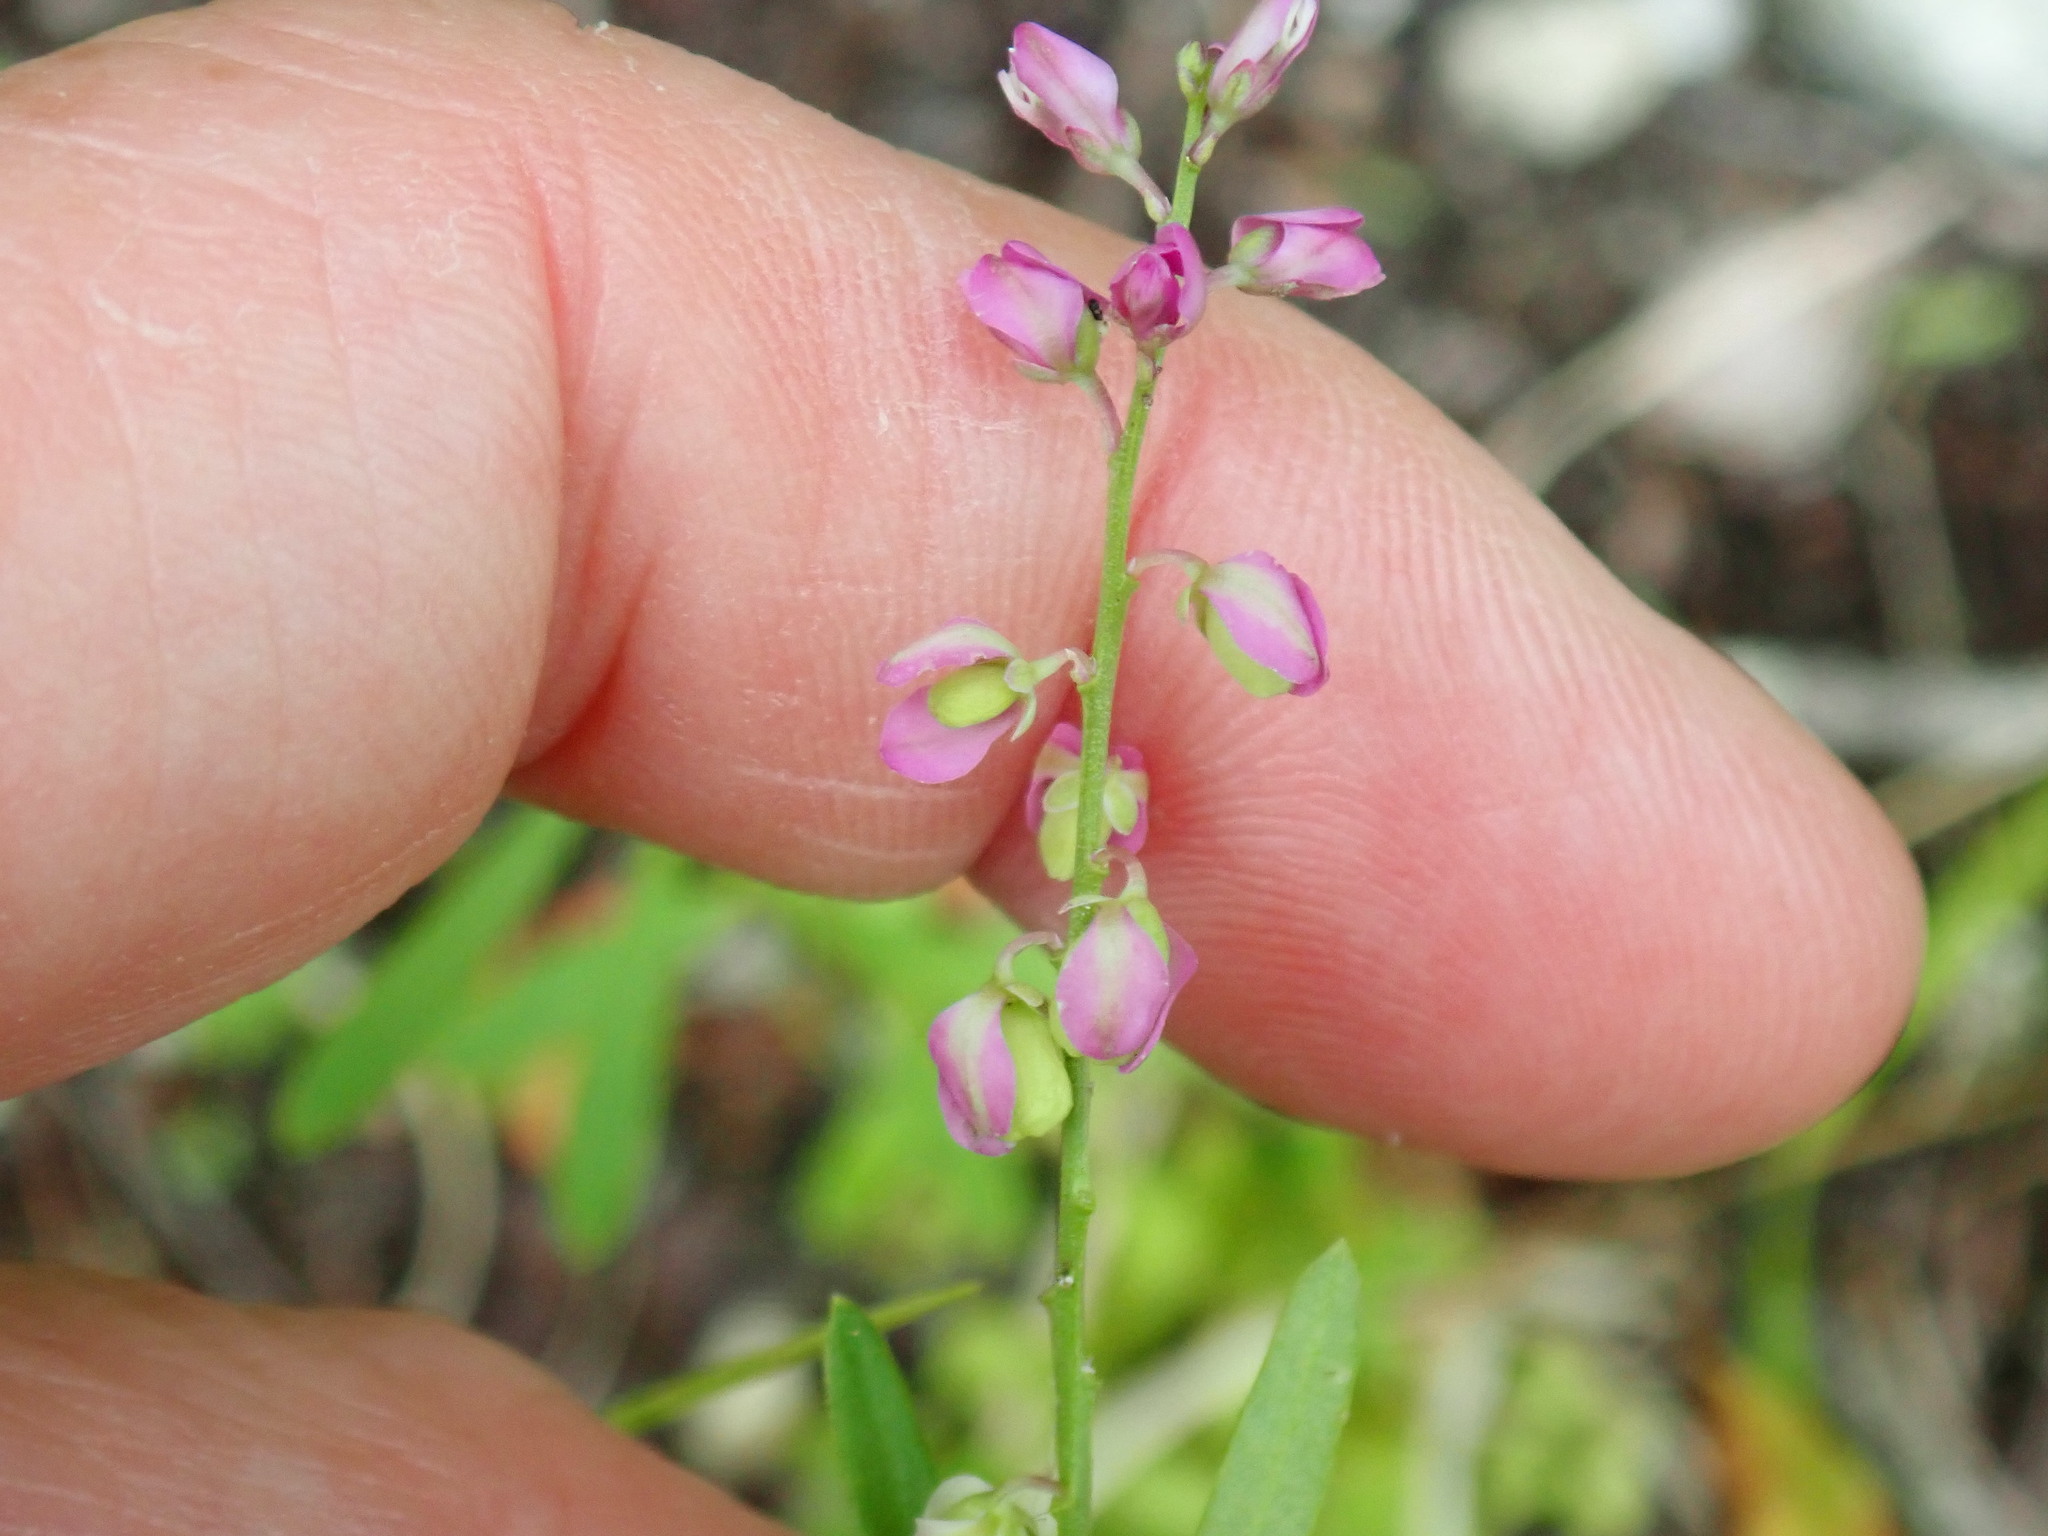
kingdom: Plantae
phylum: Tracheophyta
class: Magnoliopsida
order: Fabales
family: Polygalaceae
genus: Polygala
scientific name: Polygala polygama
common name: Bitter milkwort
